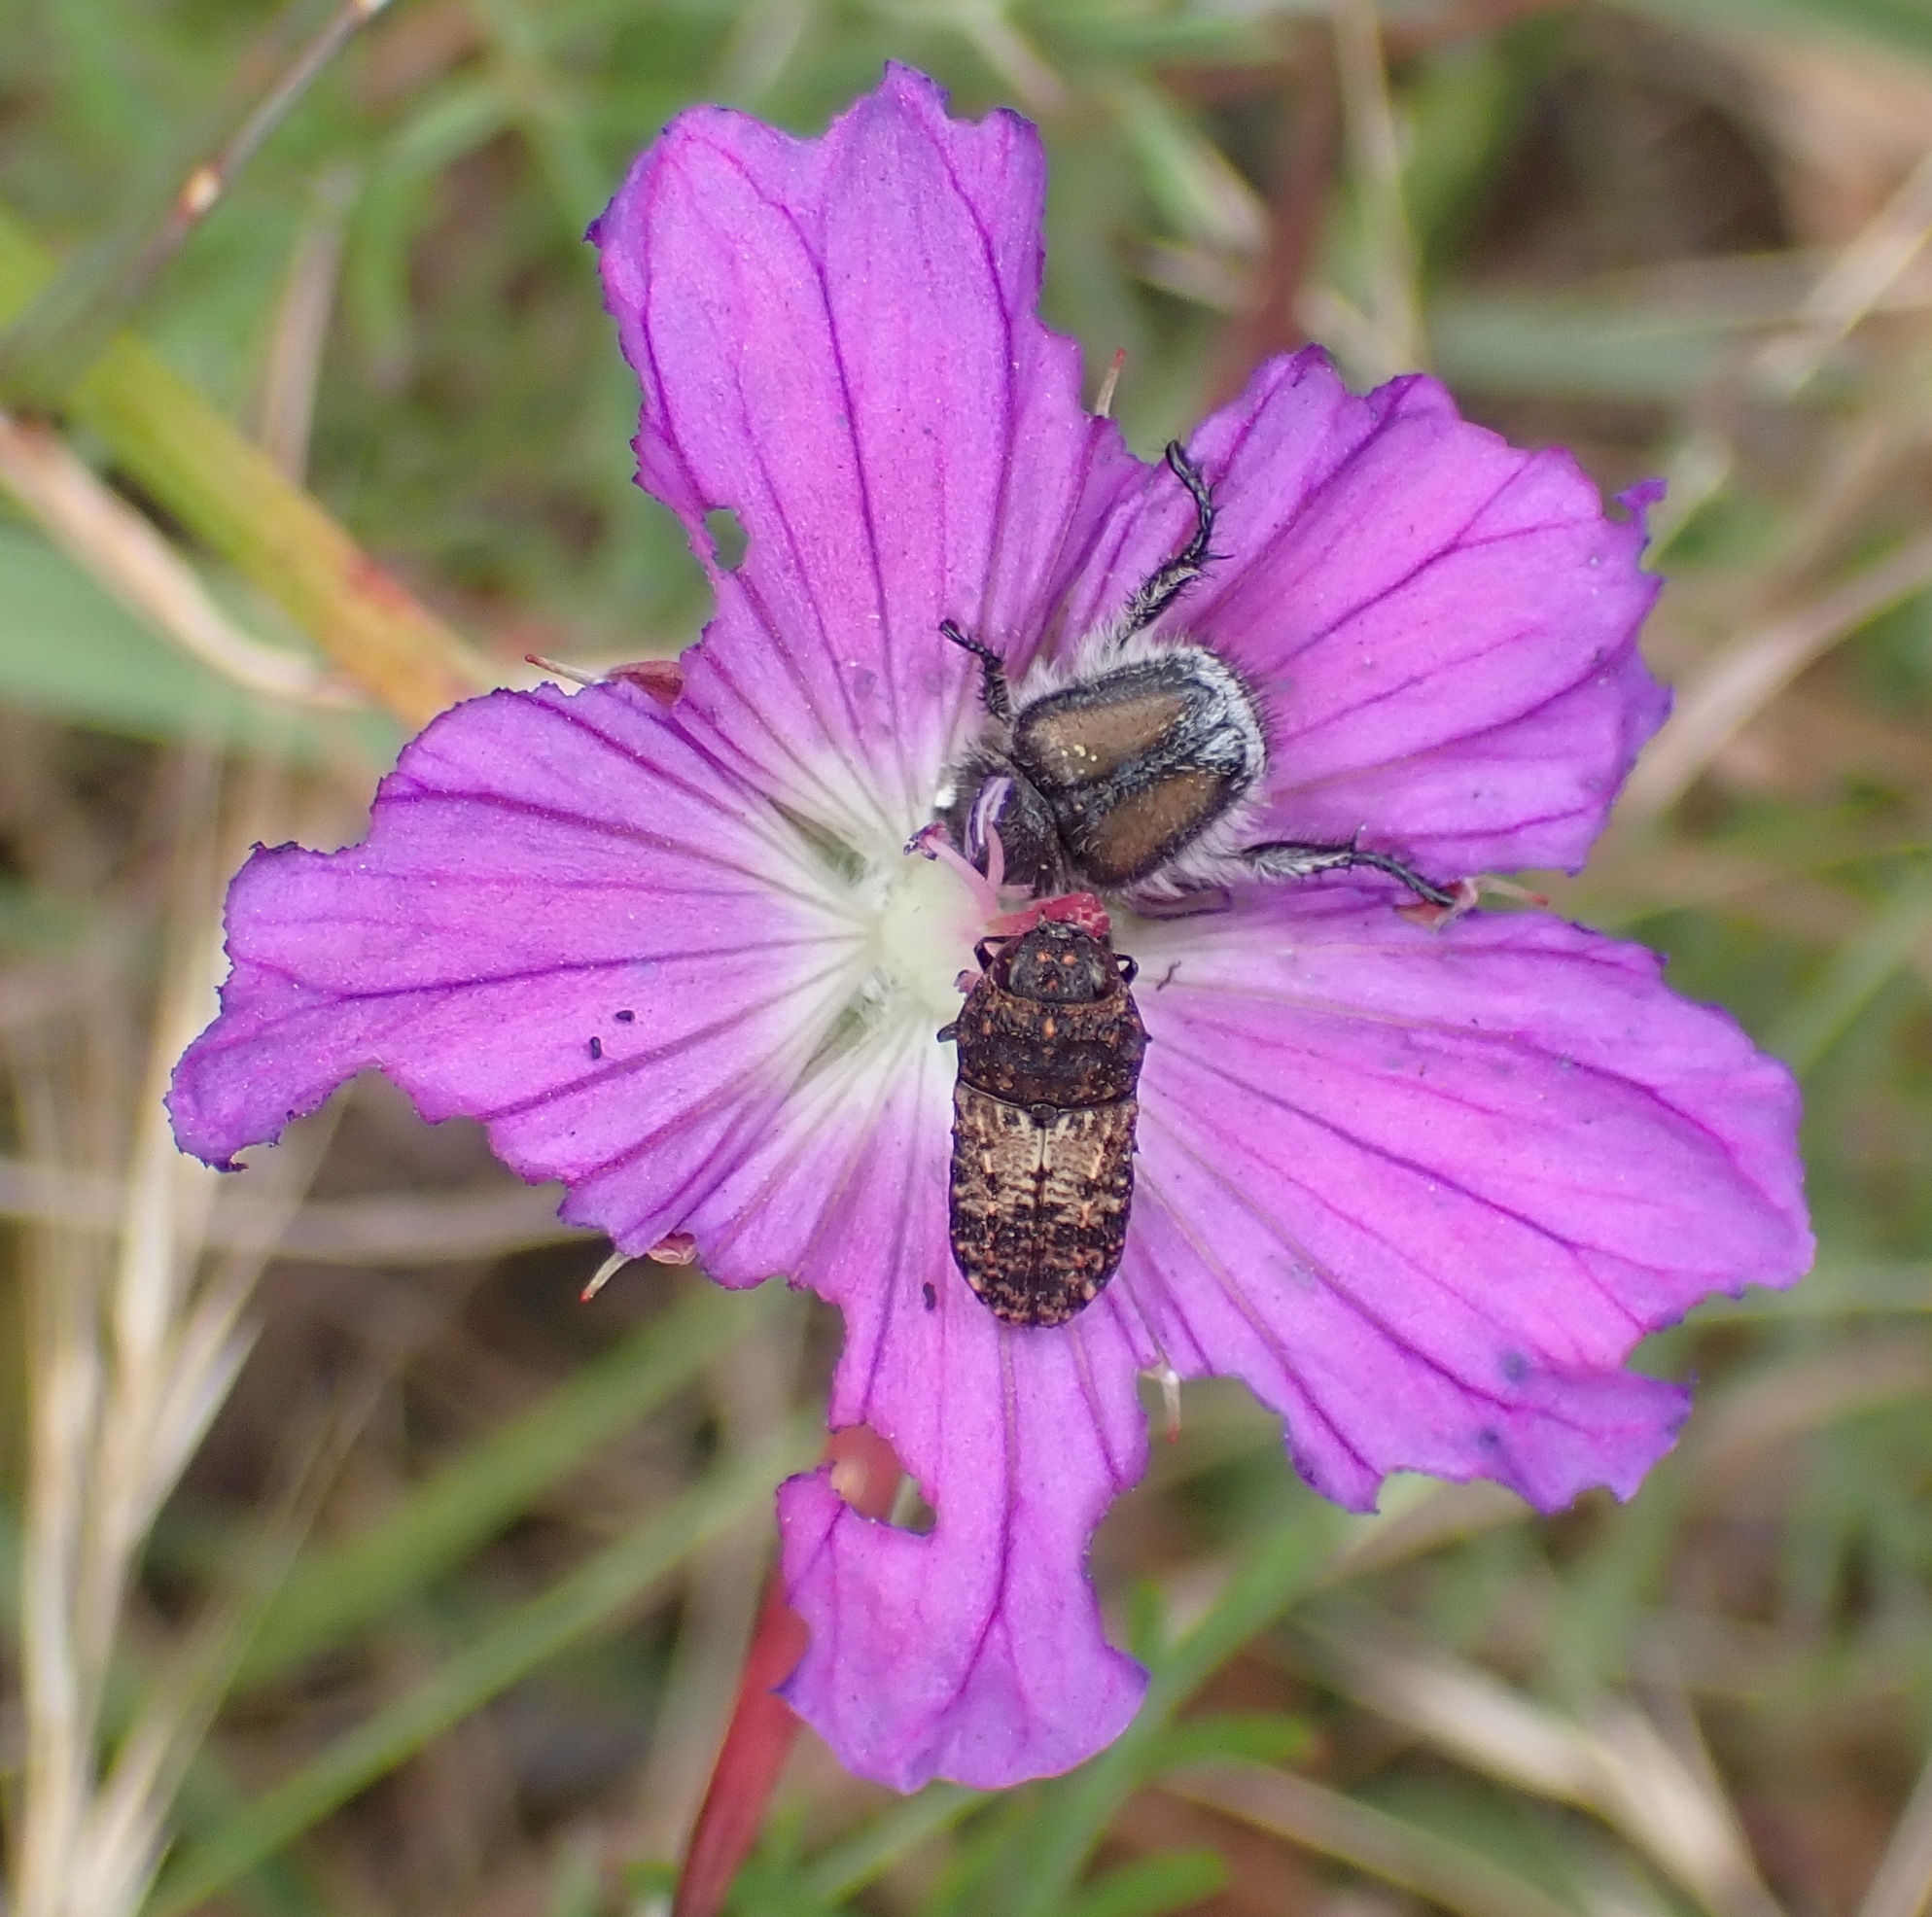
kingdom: Plantae
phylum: Tracheophyta
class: Magnoliopsida
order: Geraniales
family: Geraniaceae
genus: Geranium
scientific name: Geranium incanum
